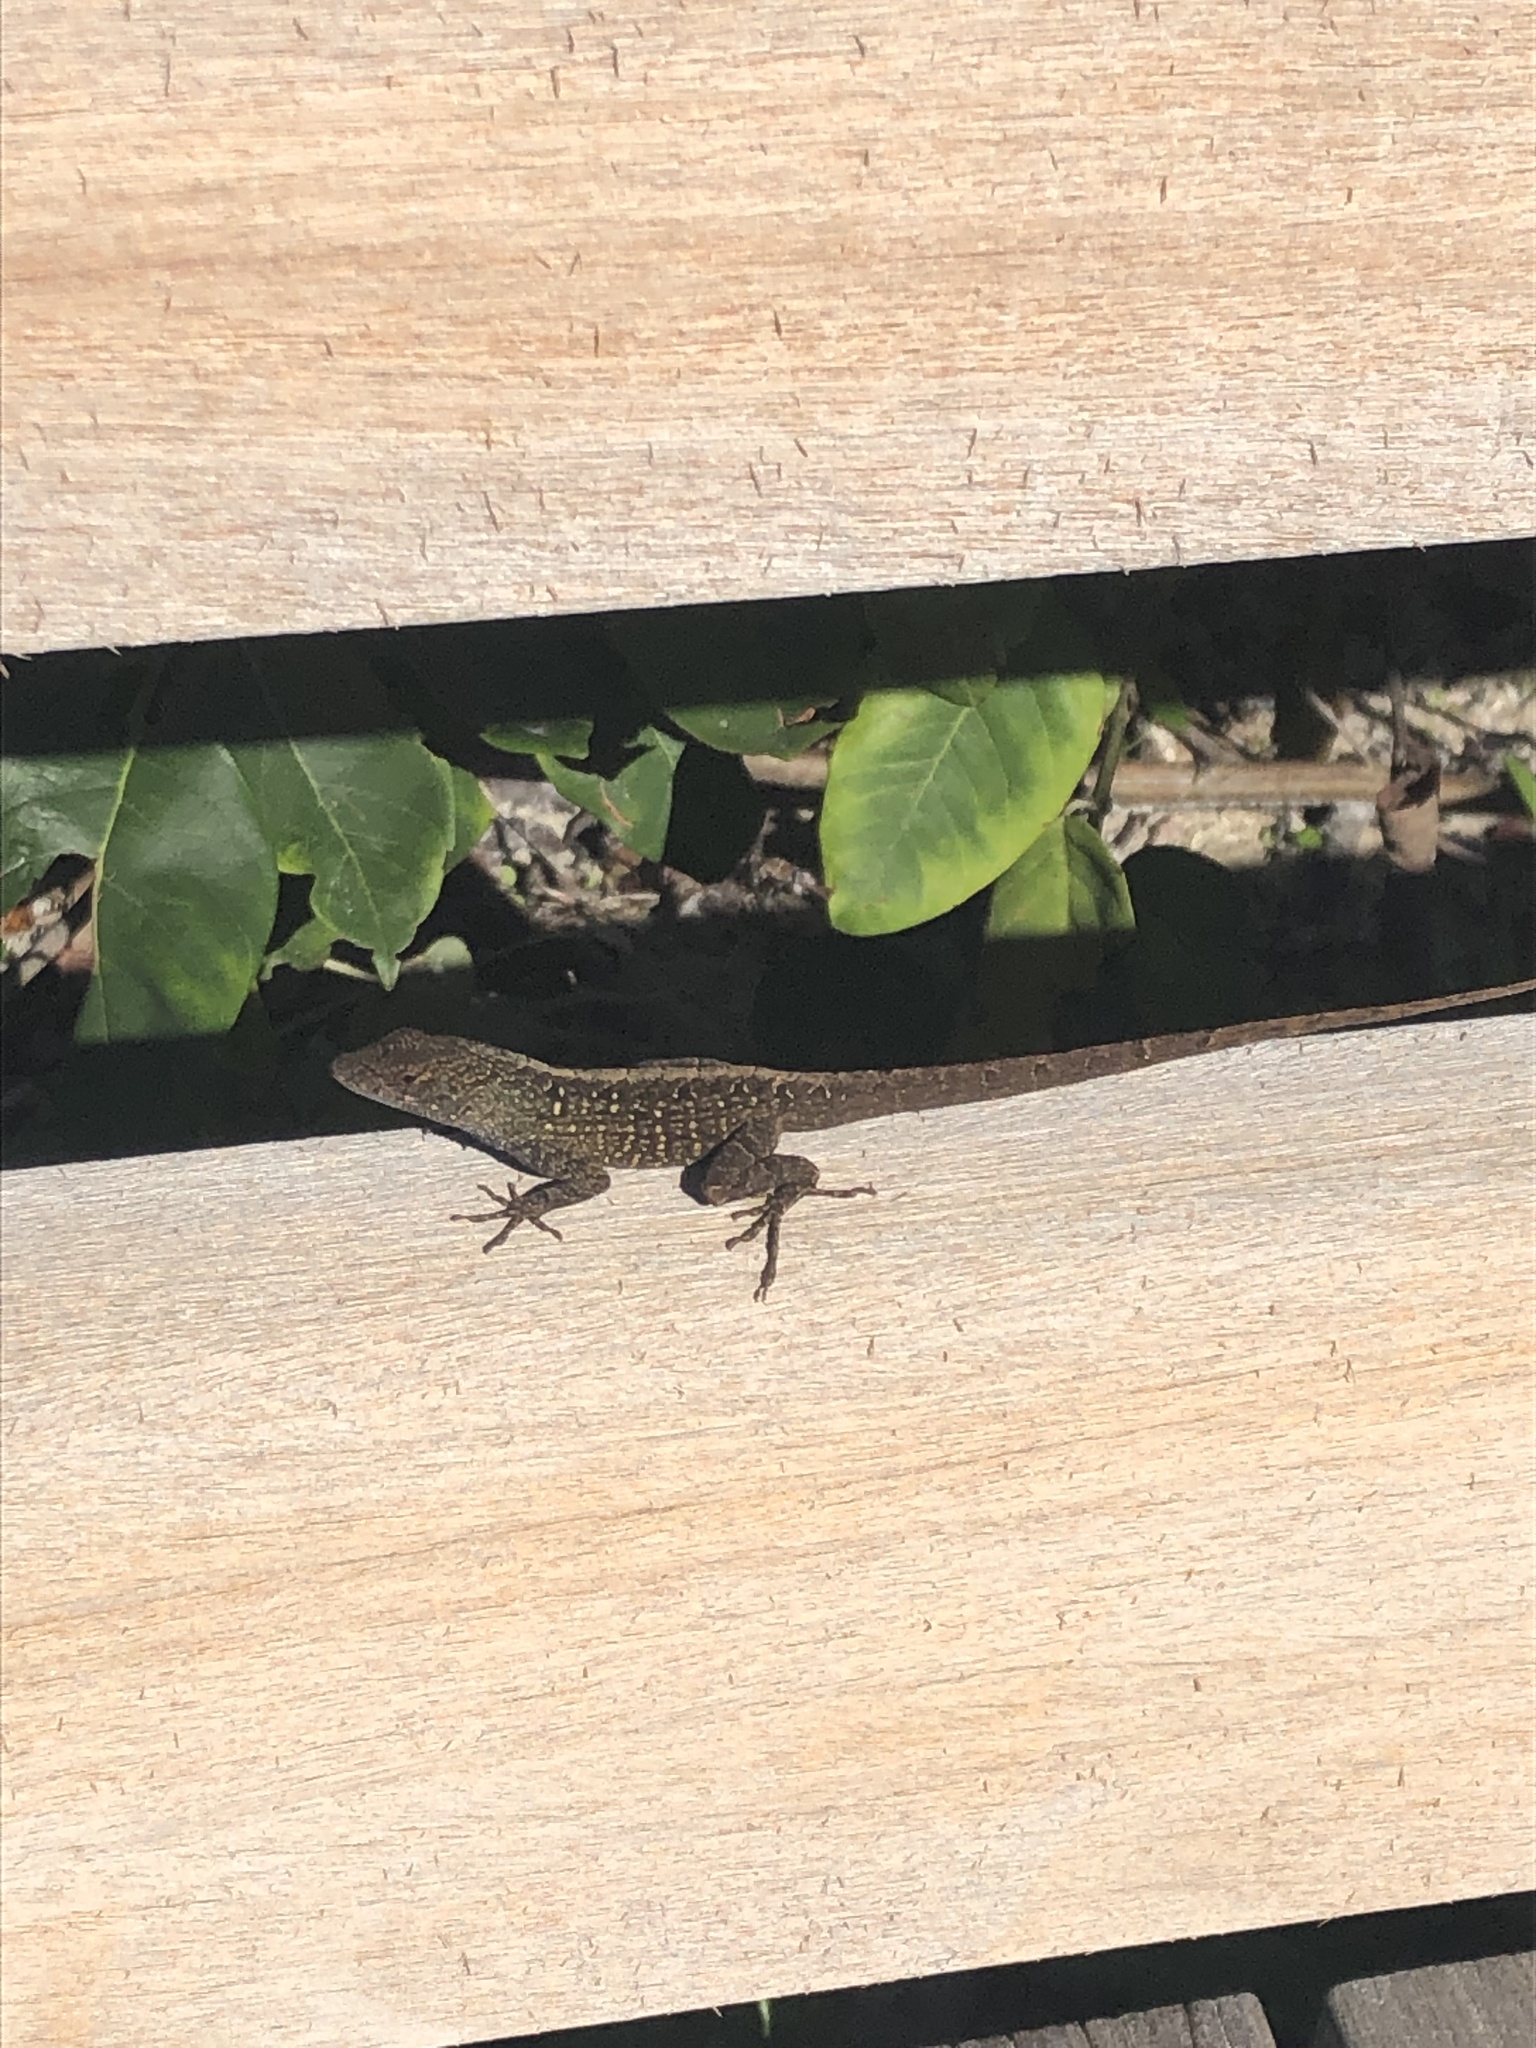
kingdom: Animalia
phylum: Chordata
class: Squamata
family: Dactyloidae
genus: Anolis
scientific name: Anolis sagrei
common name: Brown anole
